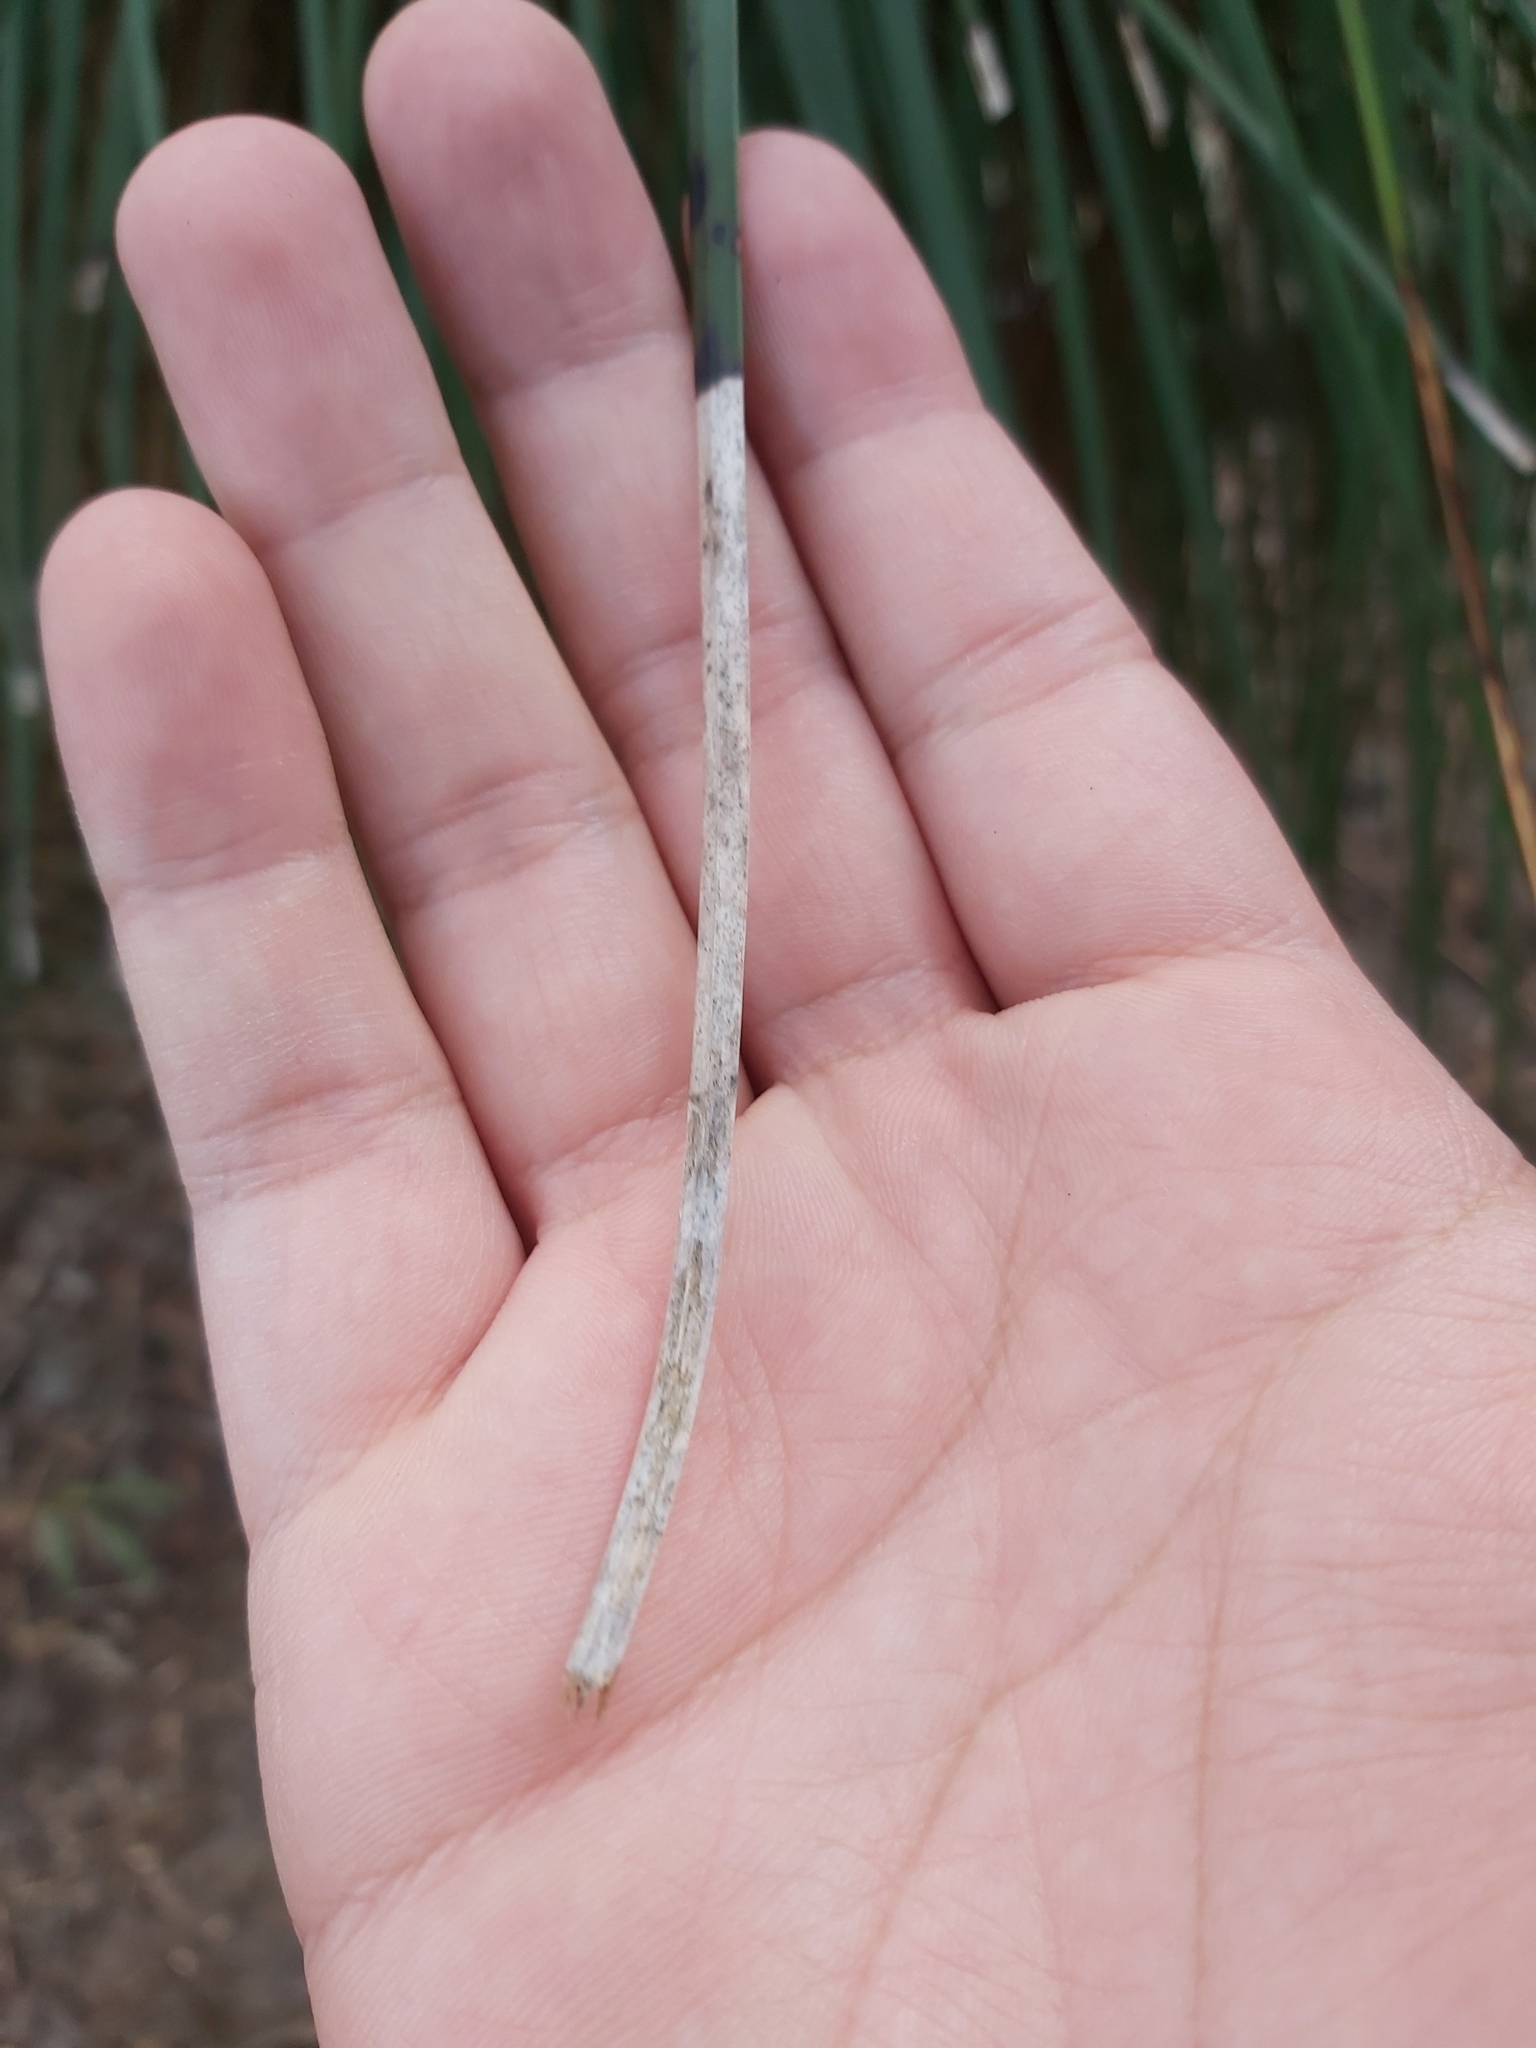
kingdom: Plantae
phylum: Tracheophyta
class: Liliopsida
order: Asparagales
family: Asphodelaceae
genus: Xanthorrhoea
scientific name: Xanthorrhoea arborea
